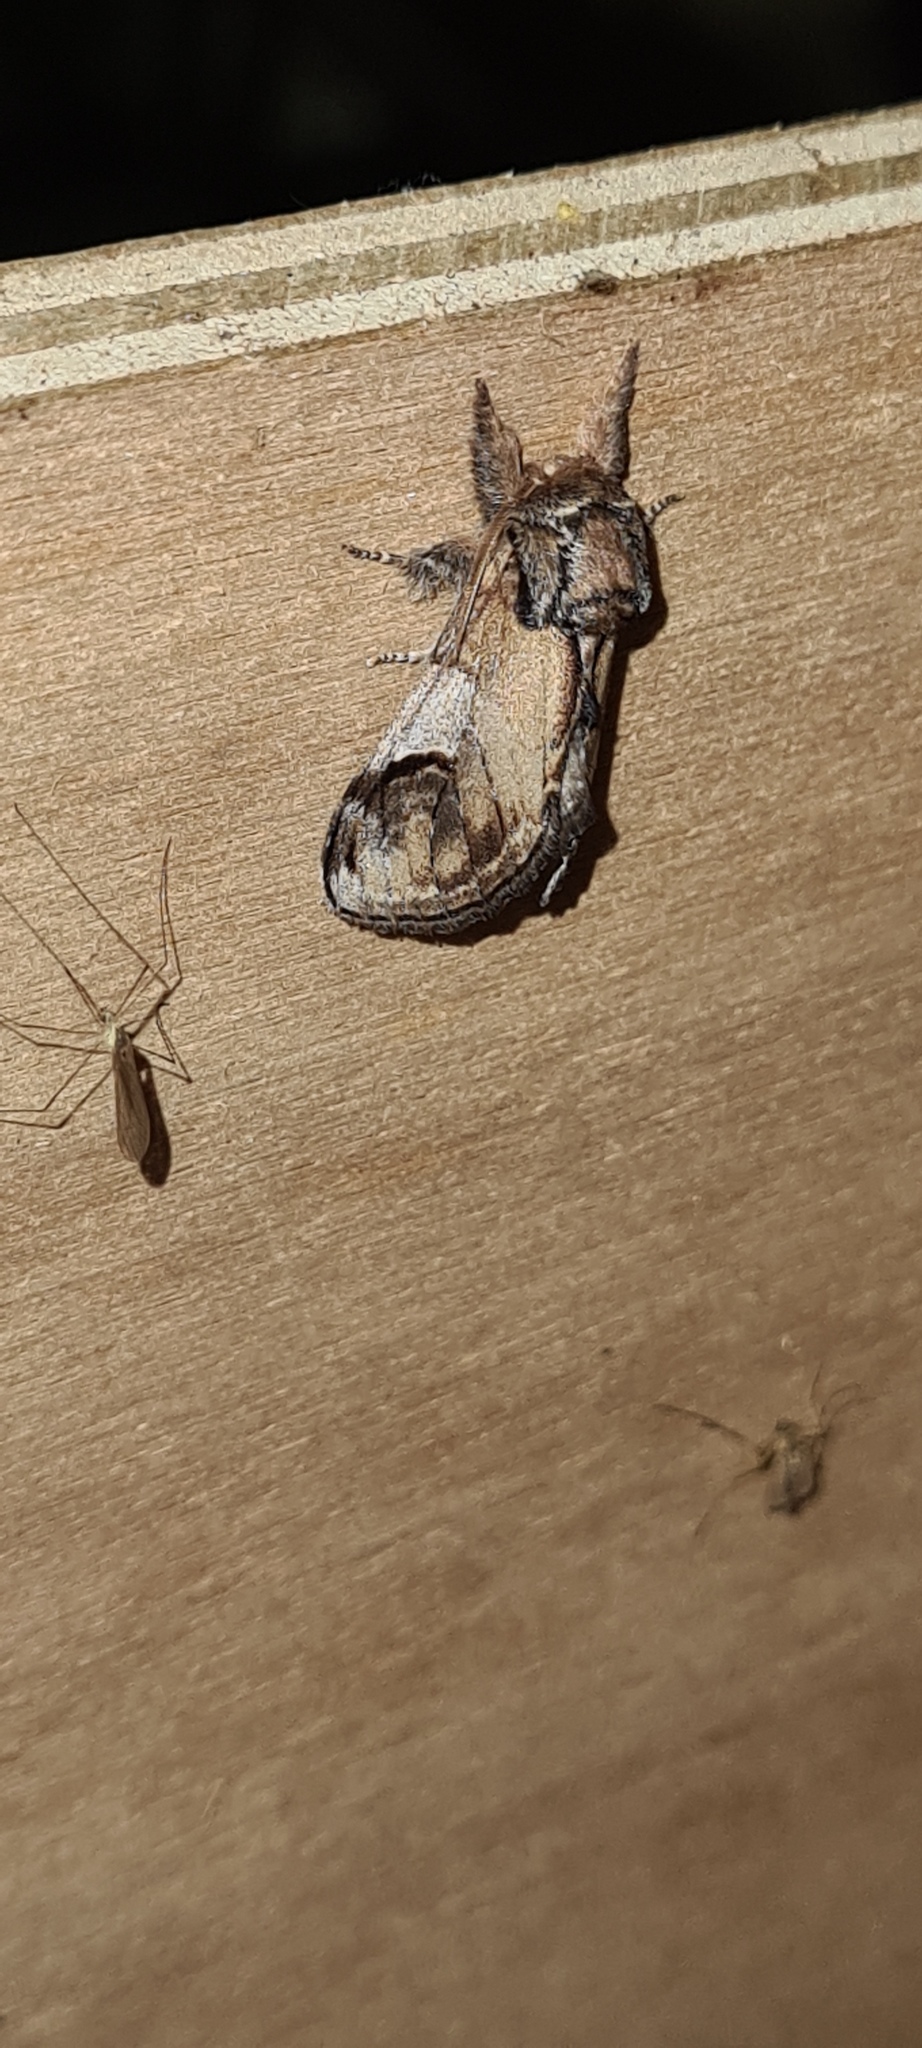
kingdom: Animalia
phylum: Arthropoda
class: Insecta
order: Lepidoptera
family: Notodontidae
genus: Notodonta
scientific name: Notodonta ziczac
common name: Pebble prominent
